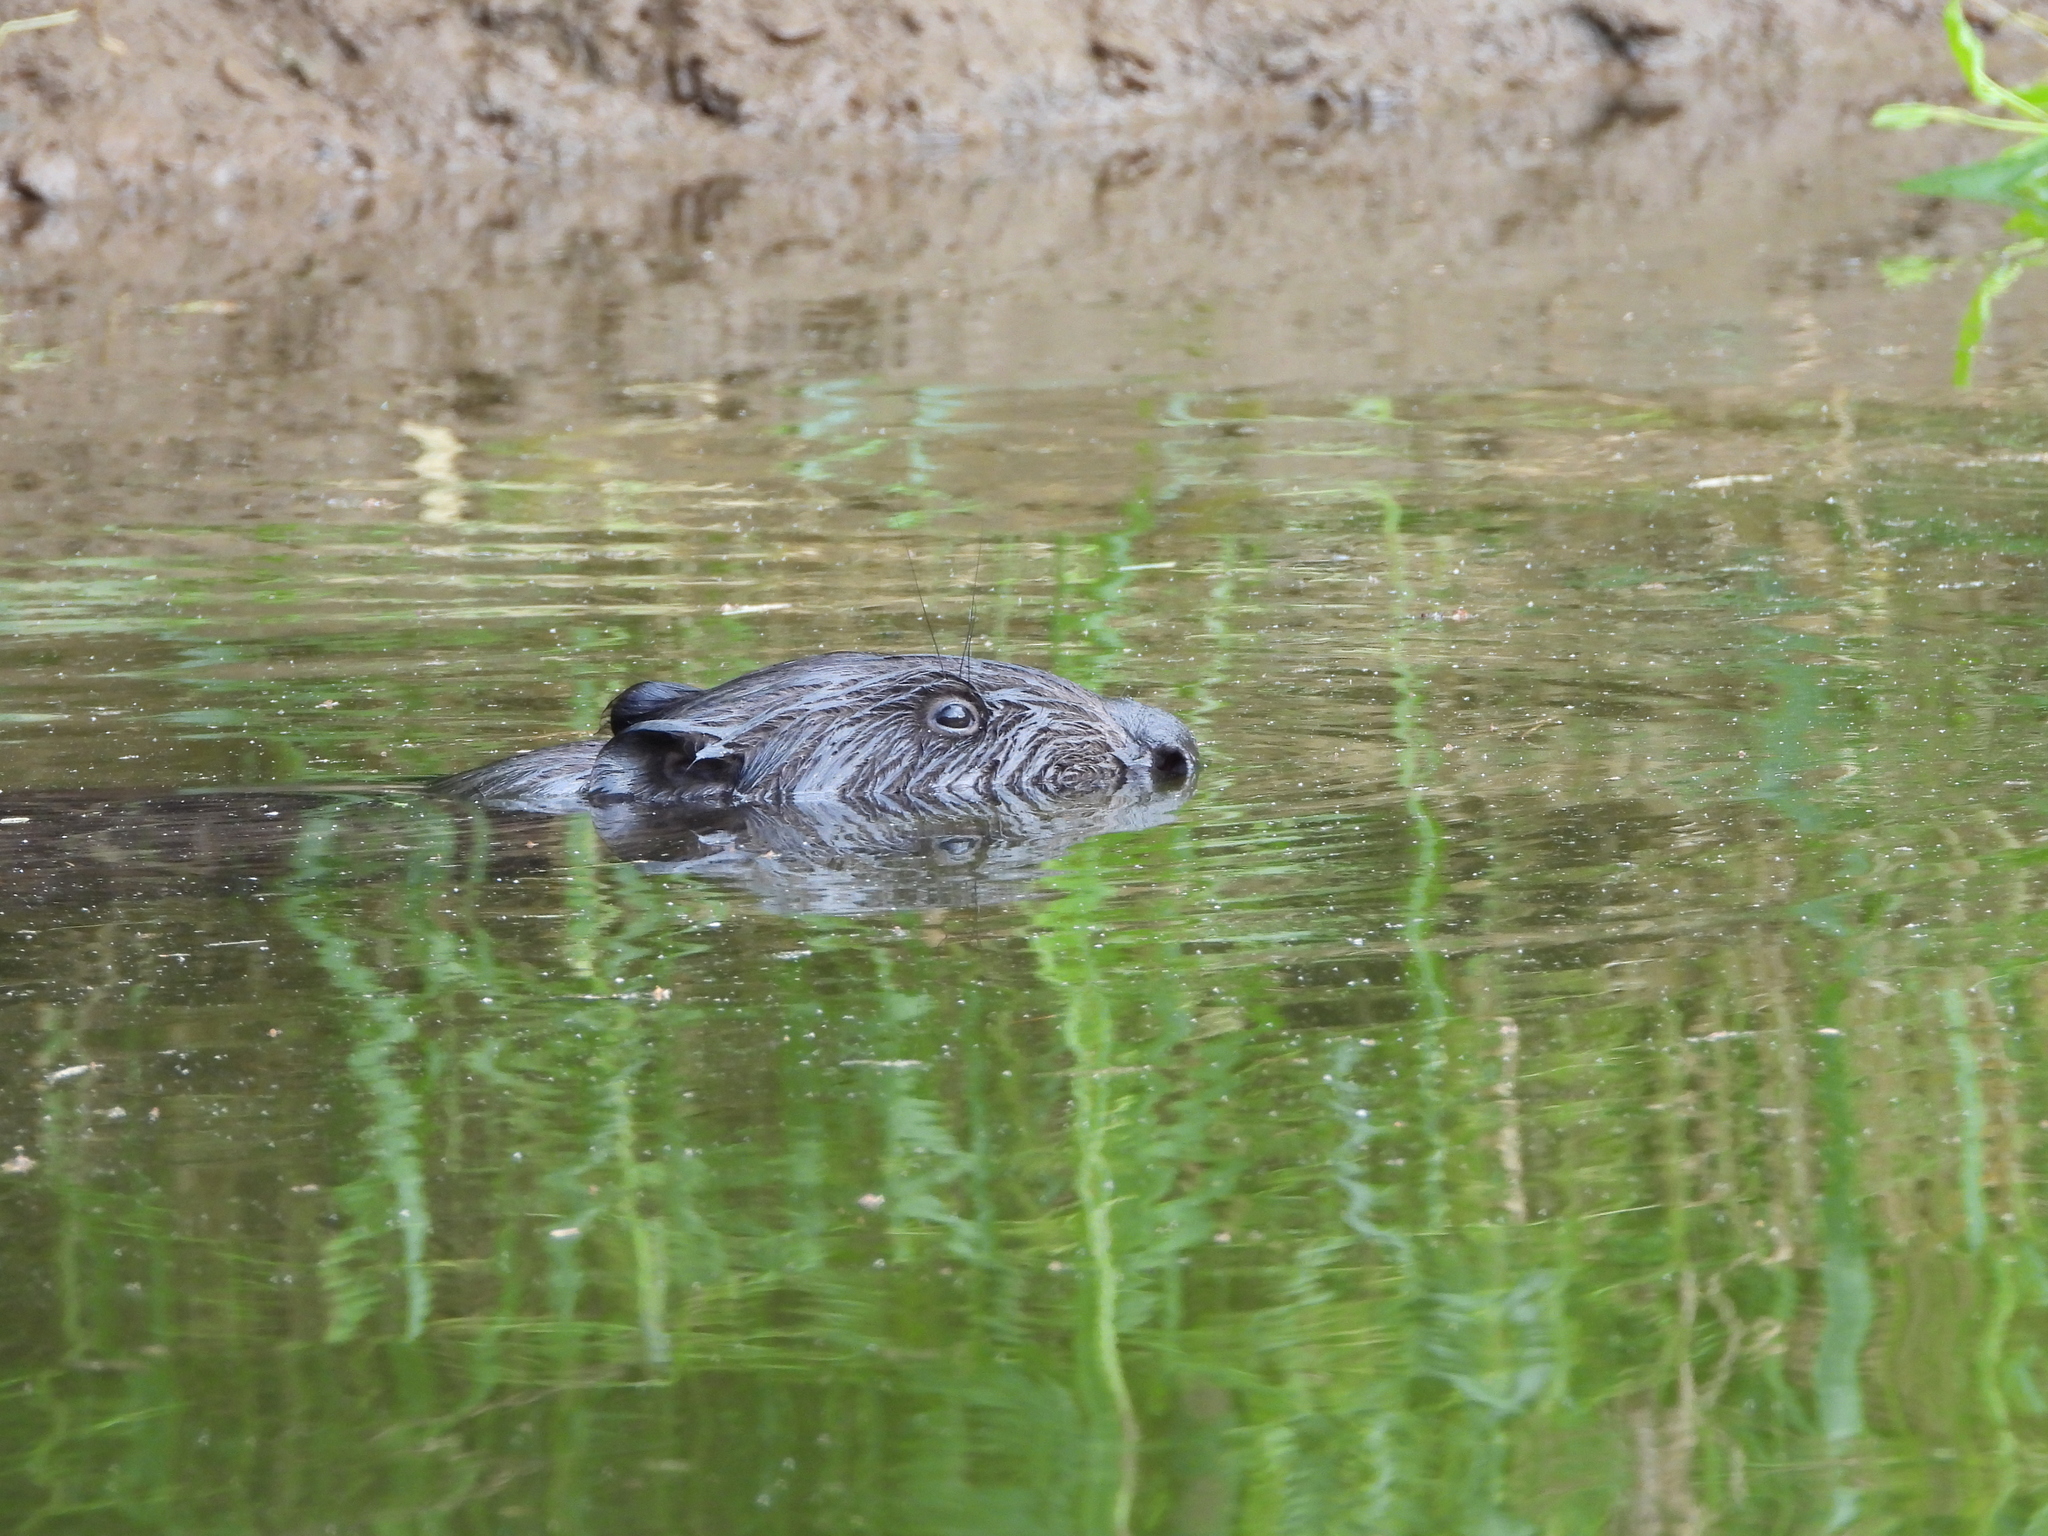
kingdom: Animalia
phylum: Chordata
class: Mammalia
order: Rodentia
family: Castoridae
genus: Castor
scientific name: Castor fiber
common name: Eurasian beaver
